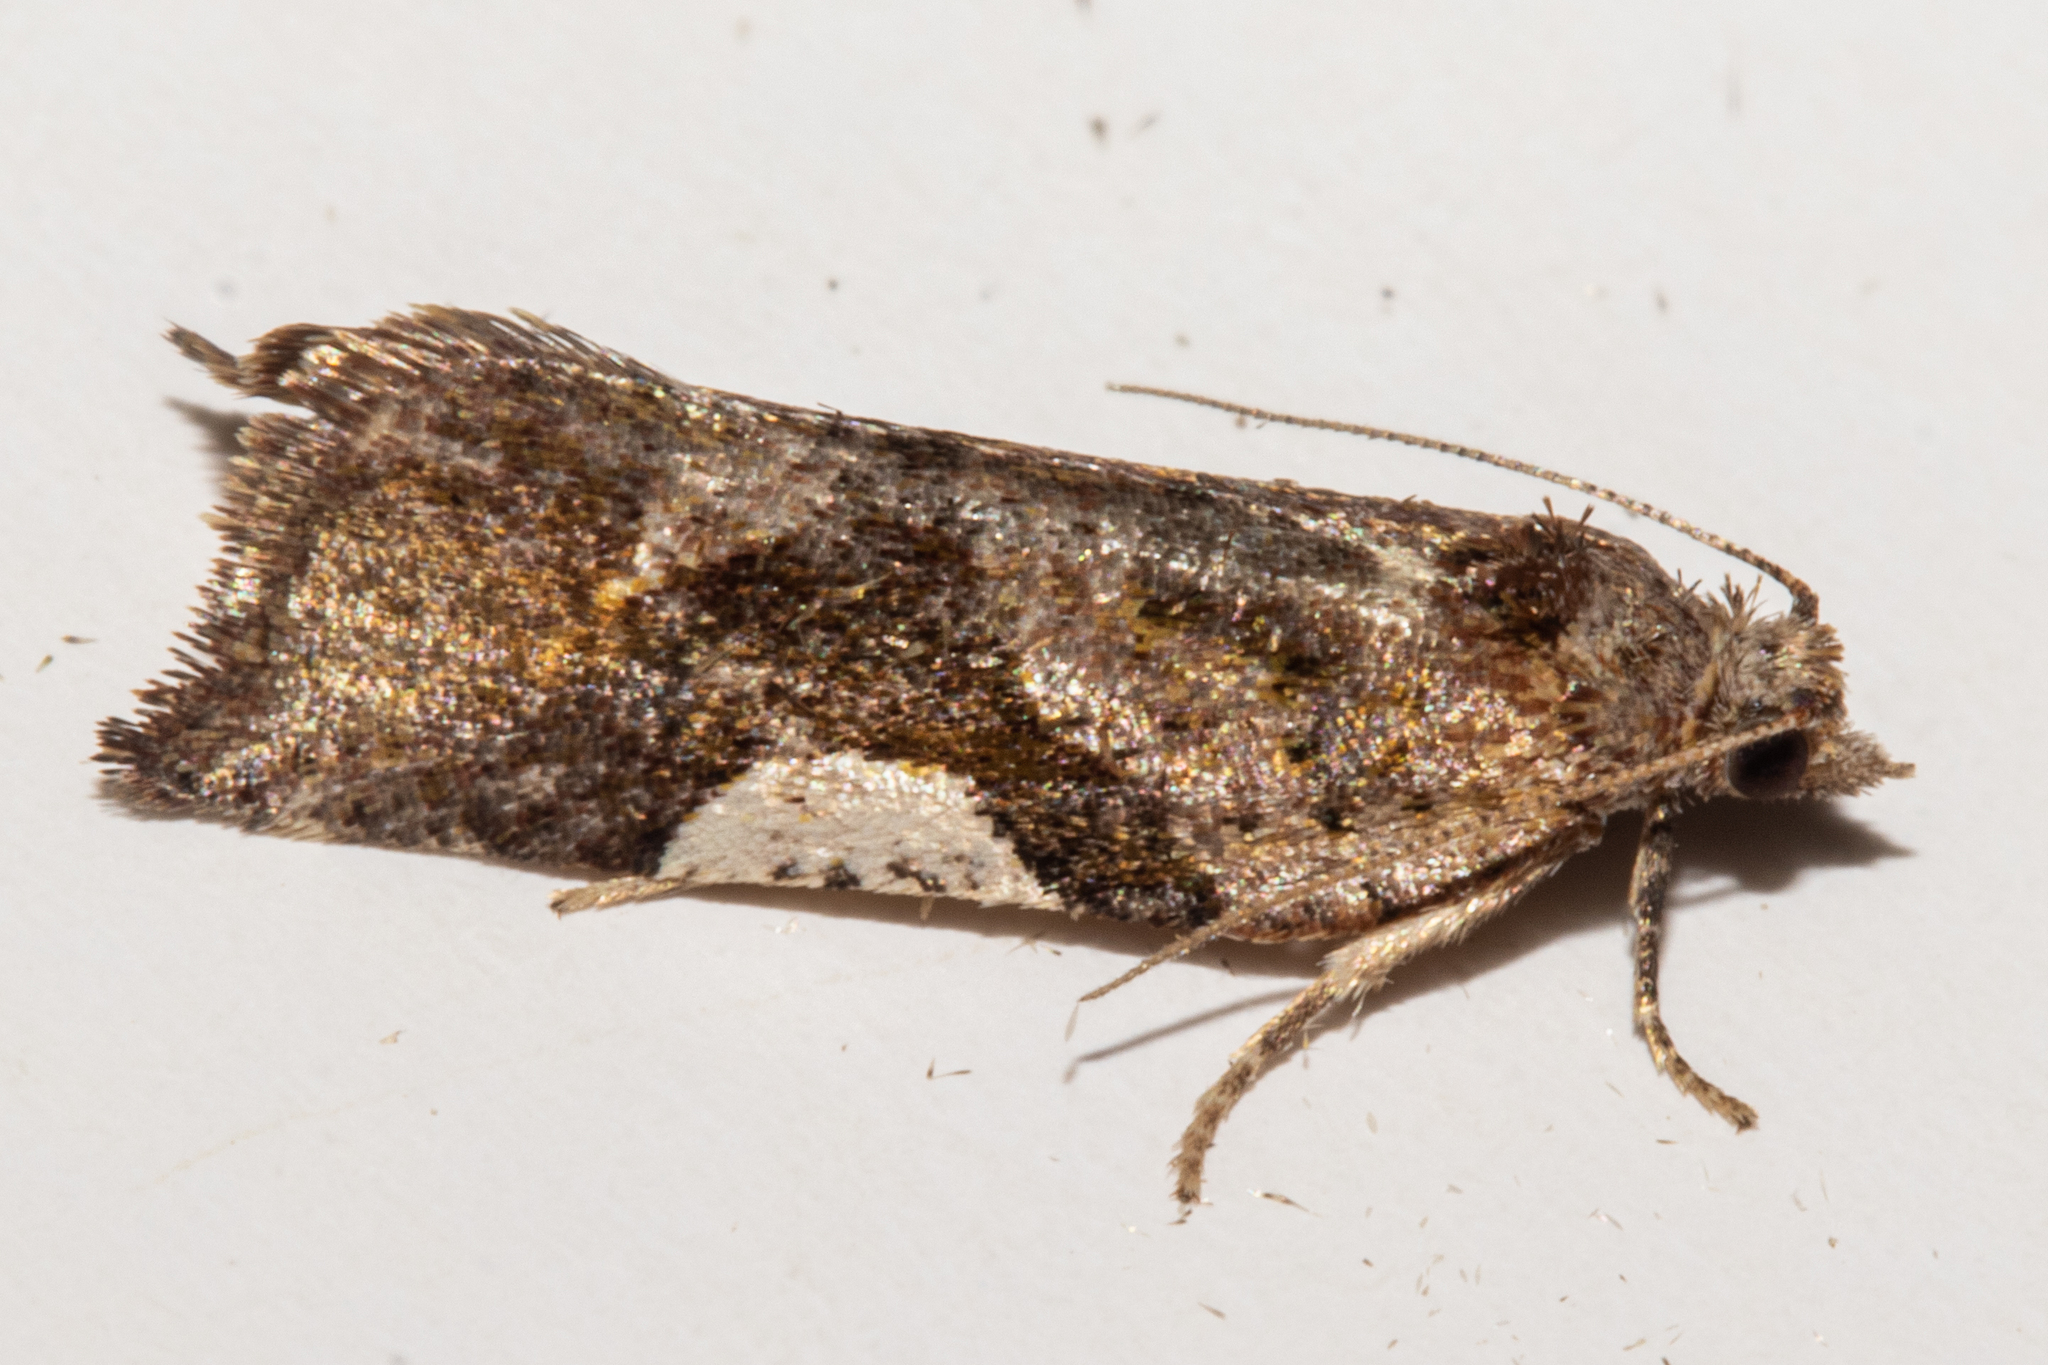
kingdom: Animalia
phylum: Arthropoda
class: Insecta
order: Lepidoptera
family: Tortricidae
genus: Pyrgotis
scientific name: Pyrgotis plagiatana
